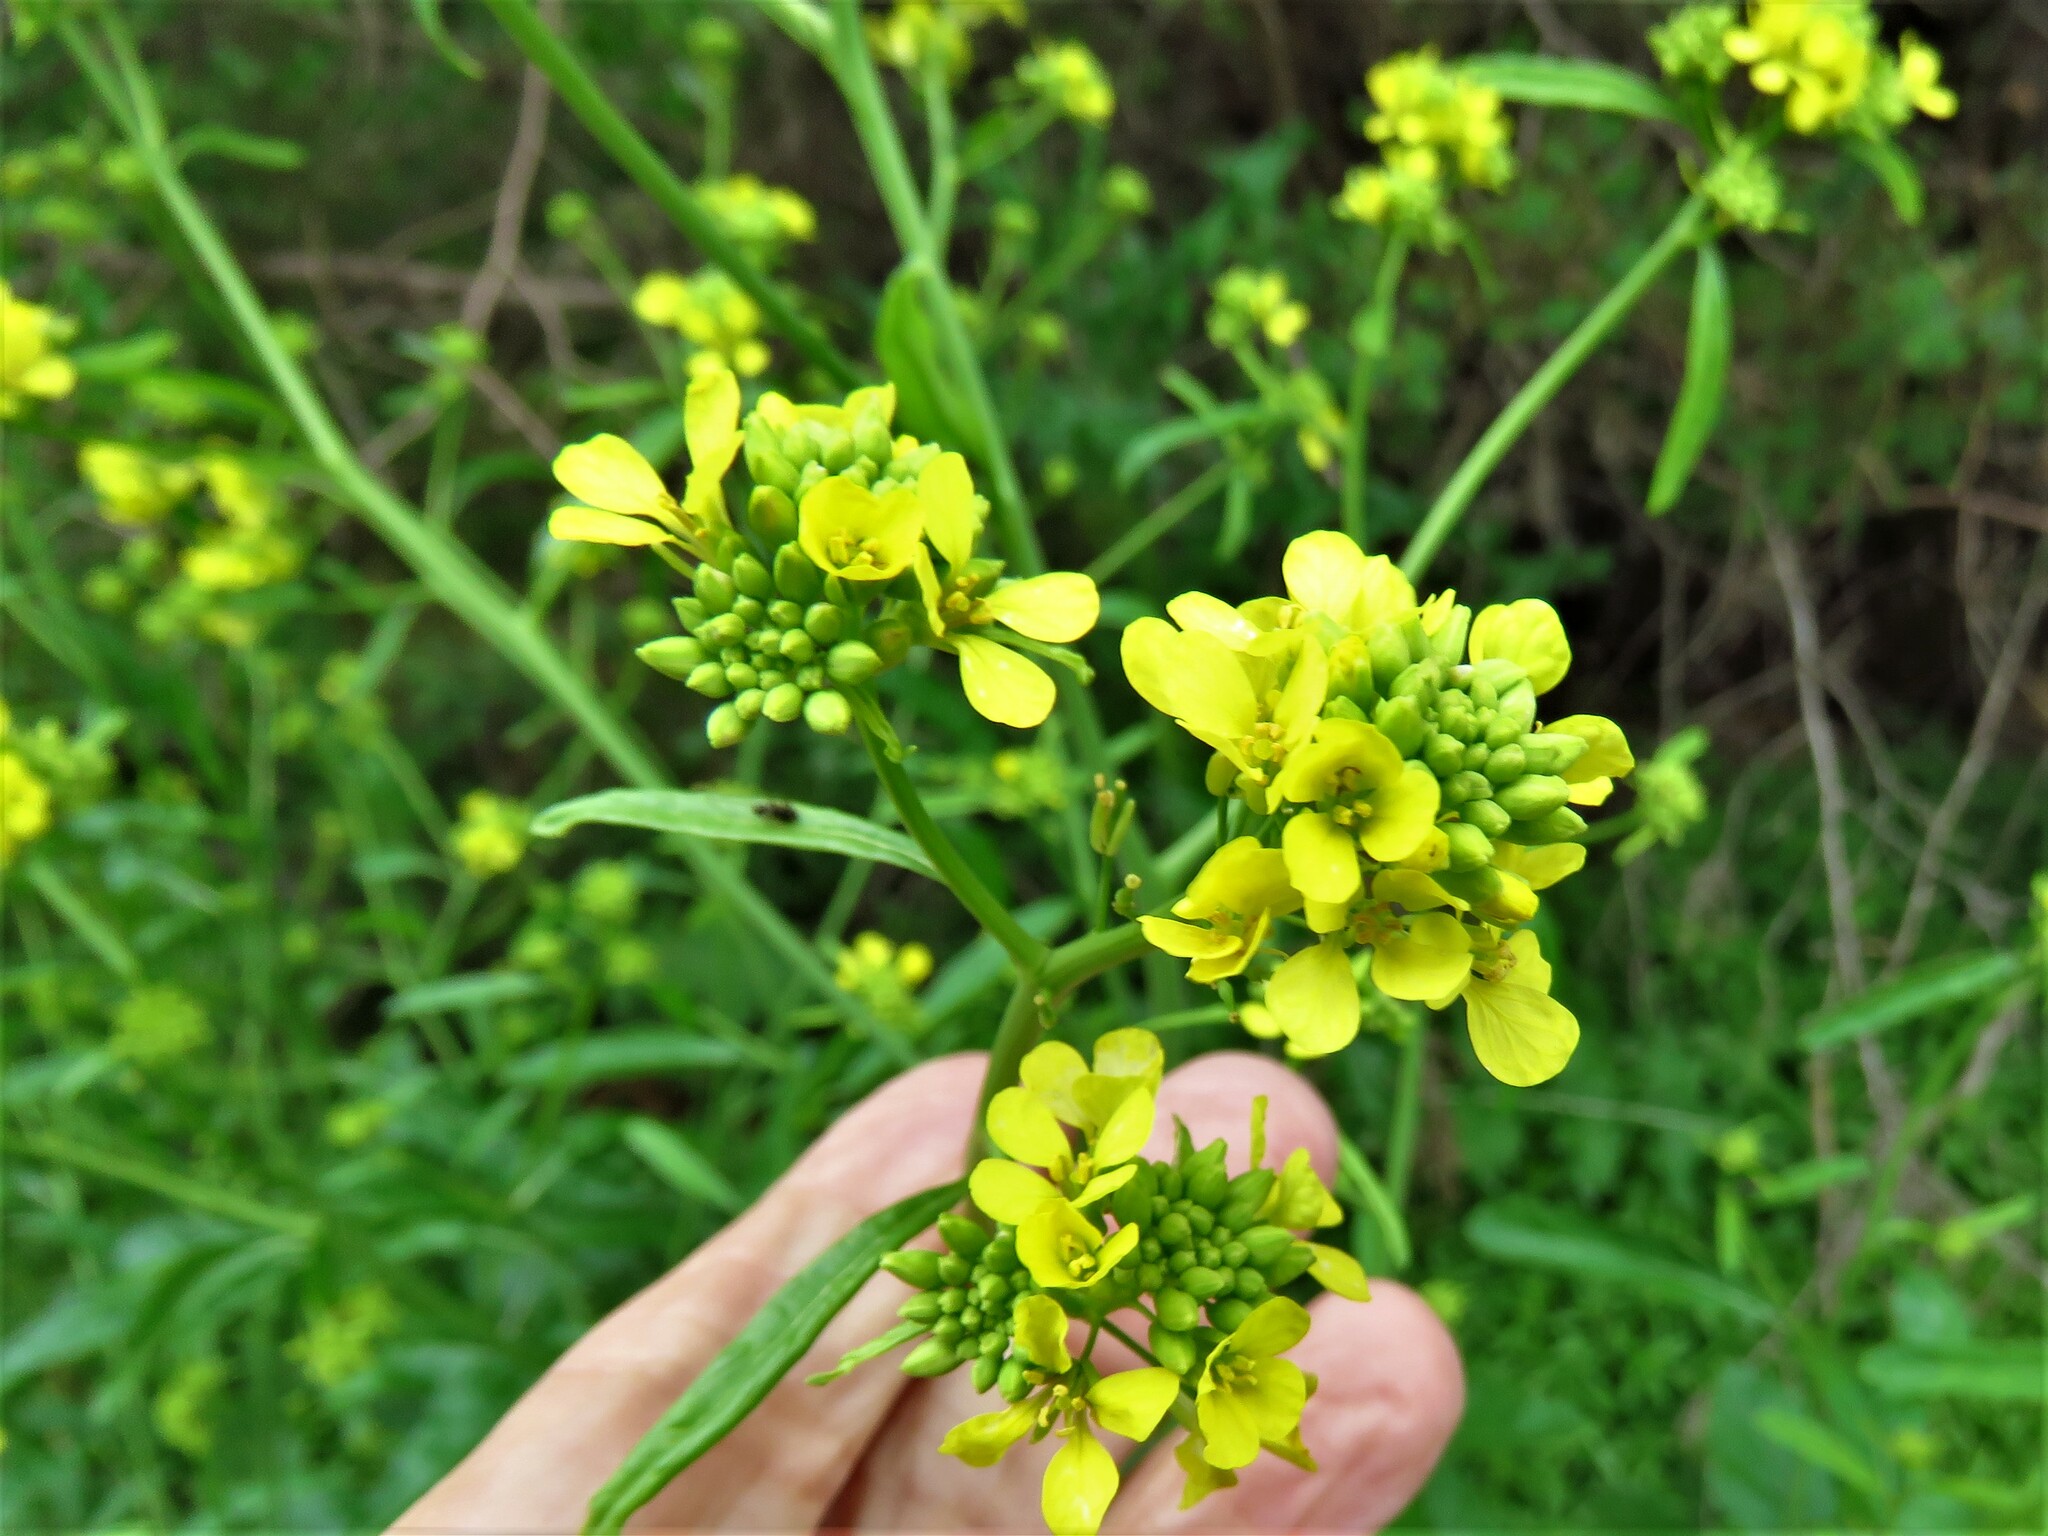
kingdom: Plantae
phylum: Tracheophyta
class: Magnoliopsida
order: Brassicales
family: Brassicaceae
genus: Rapistrum
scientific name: Rapistrum rugosum
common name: Annual bastardcabbage
